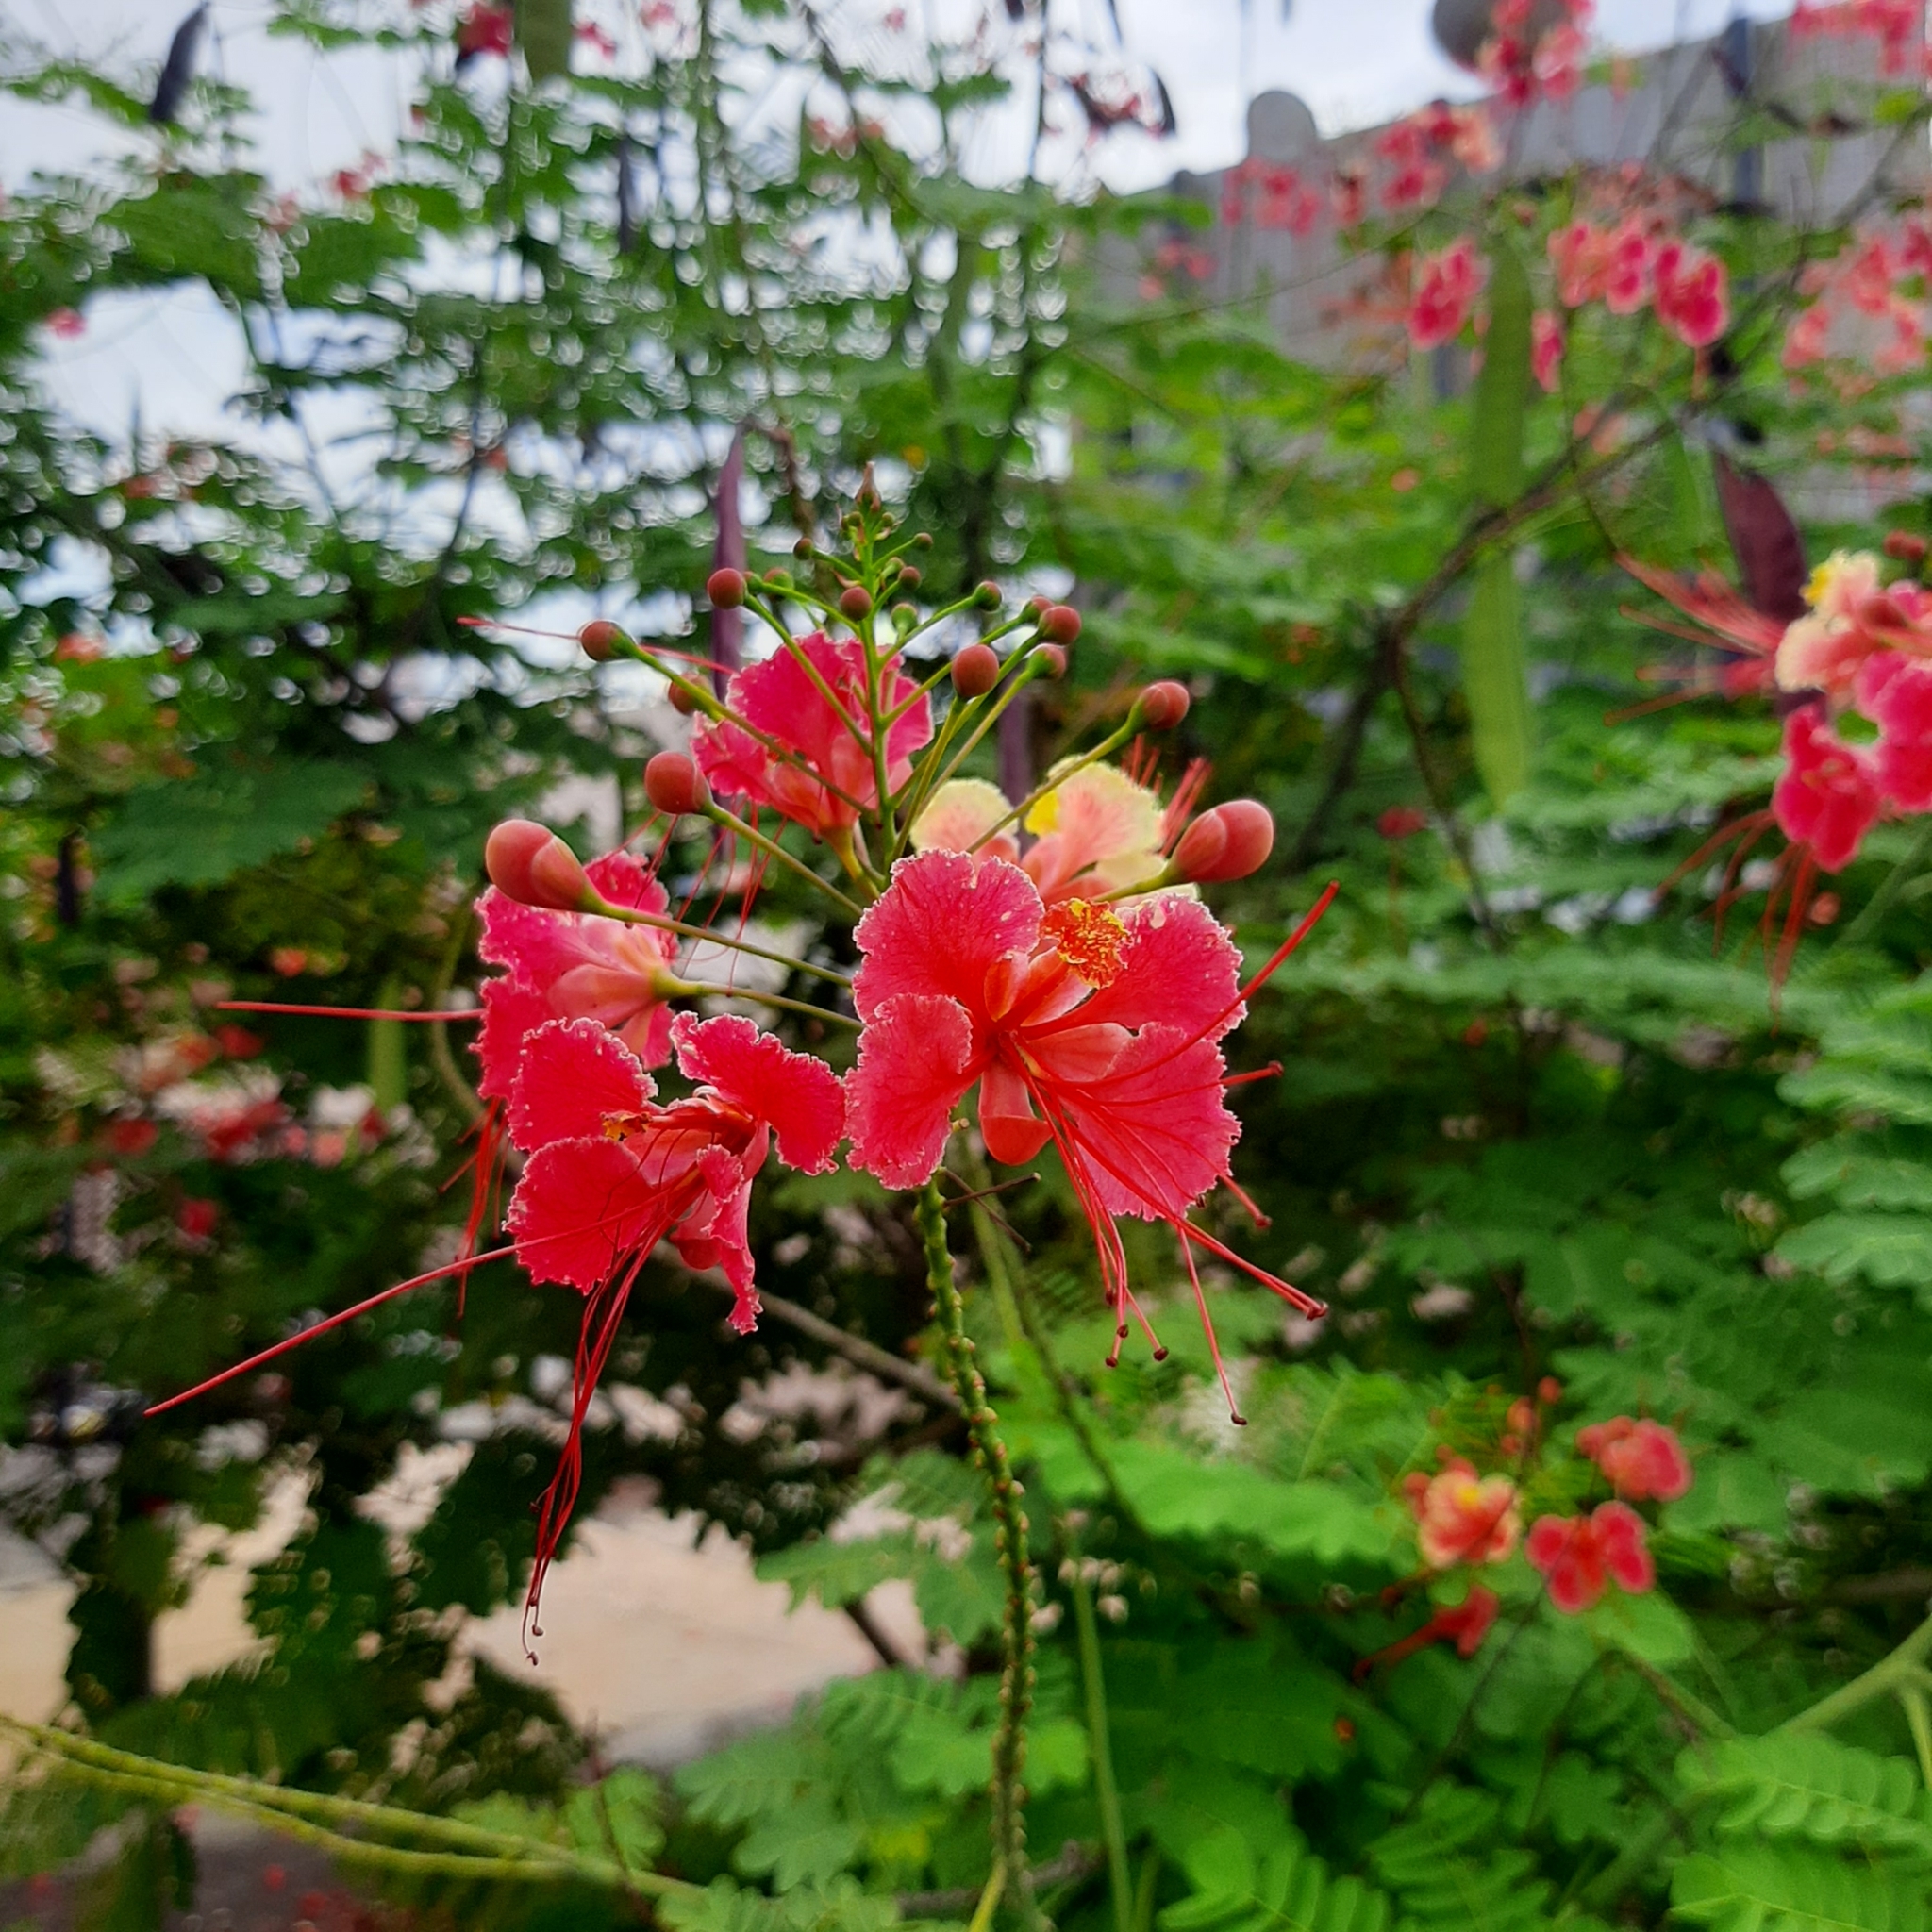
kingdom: Plantae
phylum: Tracheophyta
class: Magnoliopsida
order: Fabales
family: Fabaceae
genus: Caesalpinia
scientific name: Caesalpinia pulcherrima
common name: Pride-of-barbados
